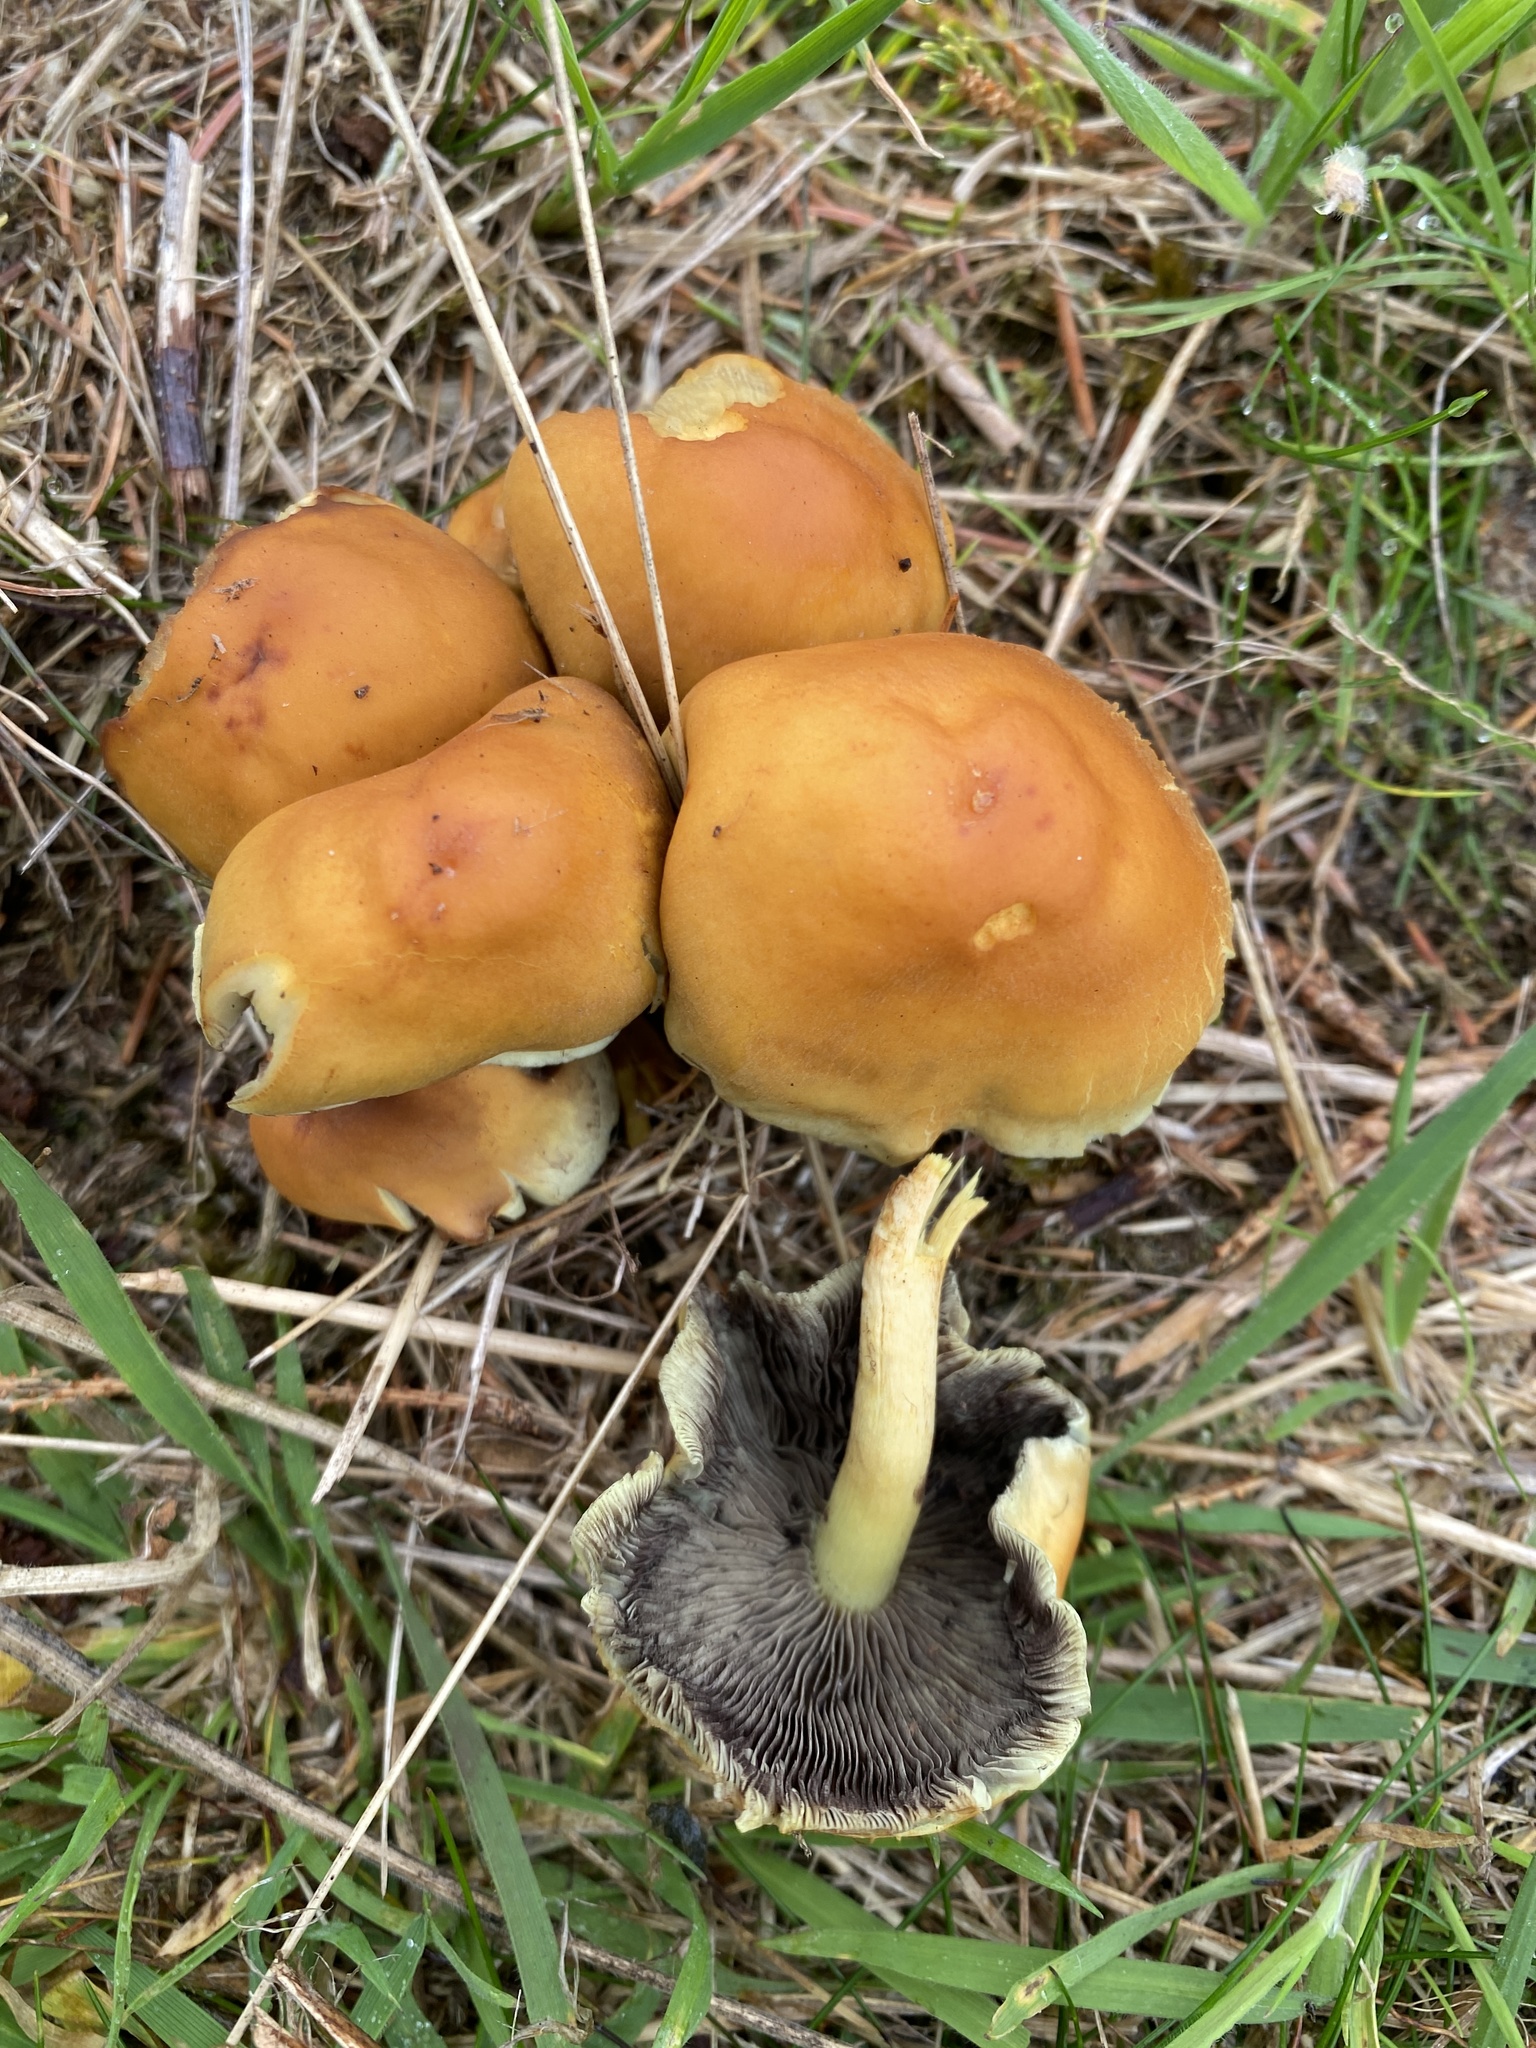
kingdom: Fungi
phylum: Basidiomycota
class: Agaricomycetes
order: Agaricales
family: Strophariaceae
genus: Hypholoma
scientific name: Hypholoma fasciculare
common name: Sulphur tuft
